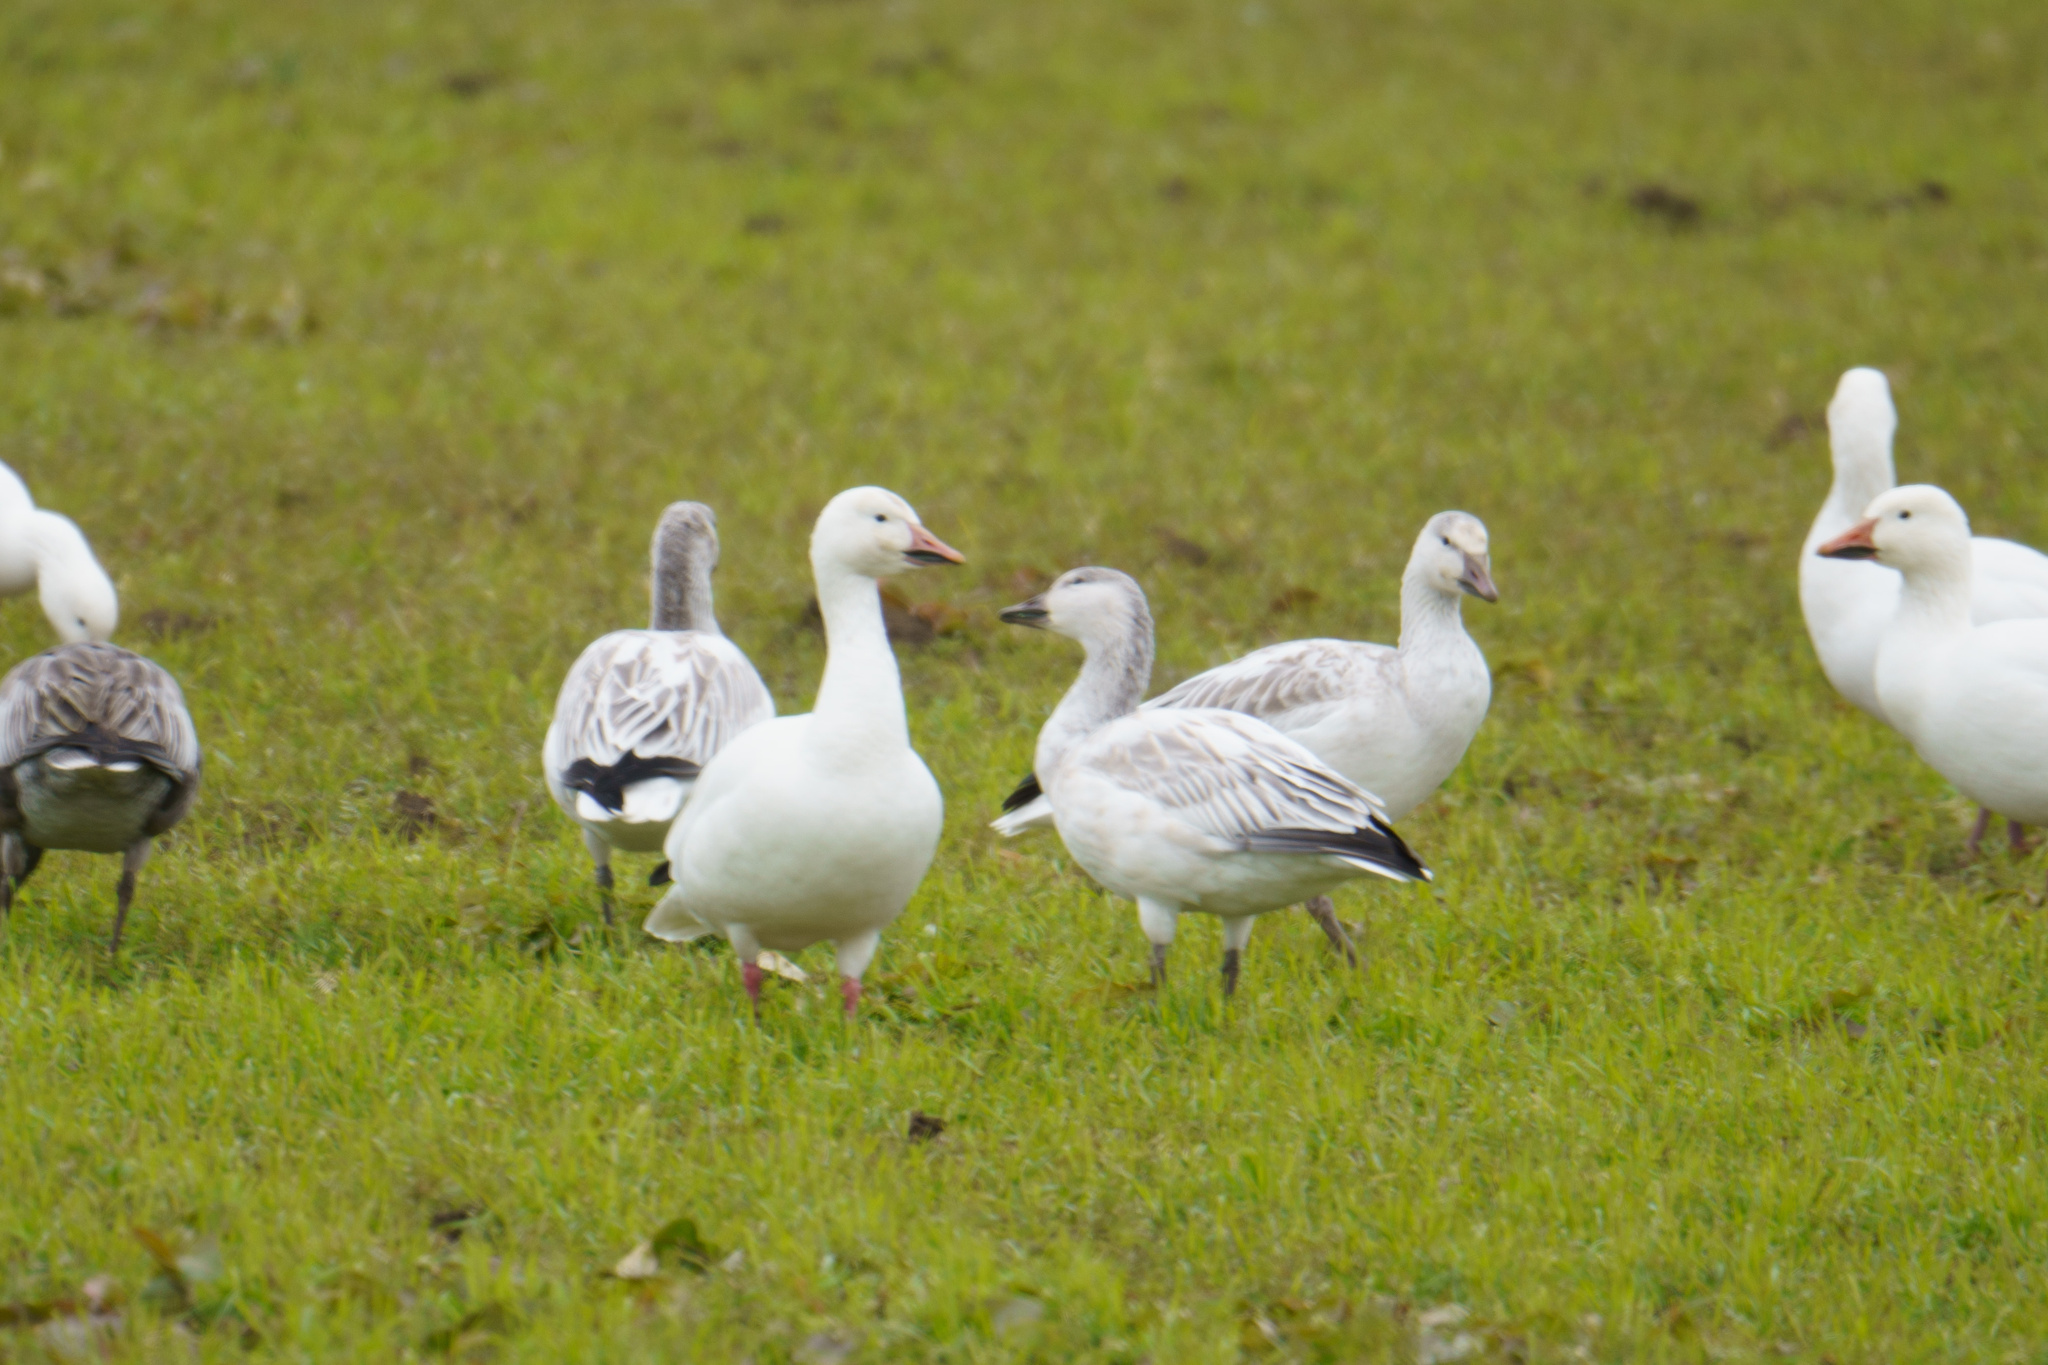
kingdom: Animalia
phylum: Chordata
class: Aves
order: Anseriformes
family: Anatidae
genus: Anser
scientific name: Anser caerulescens
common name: Snow goose
